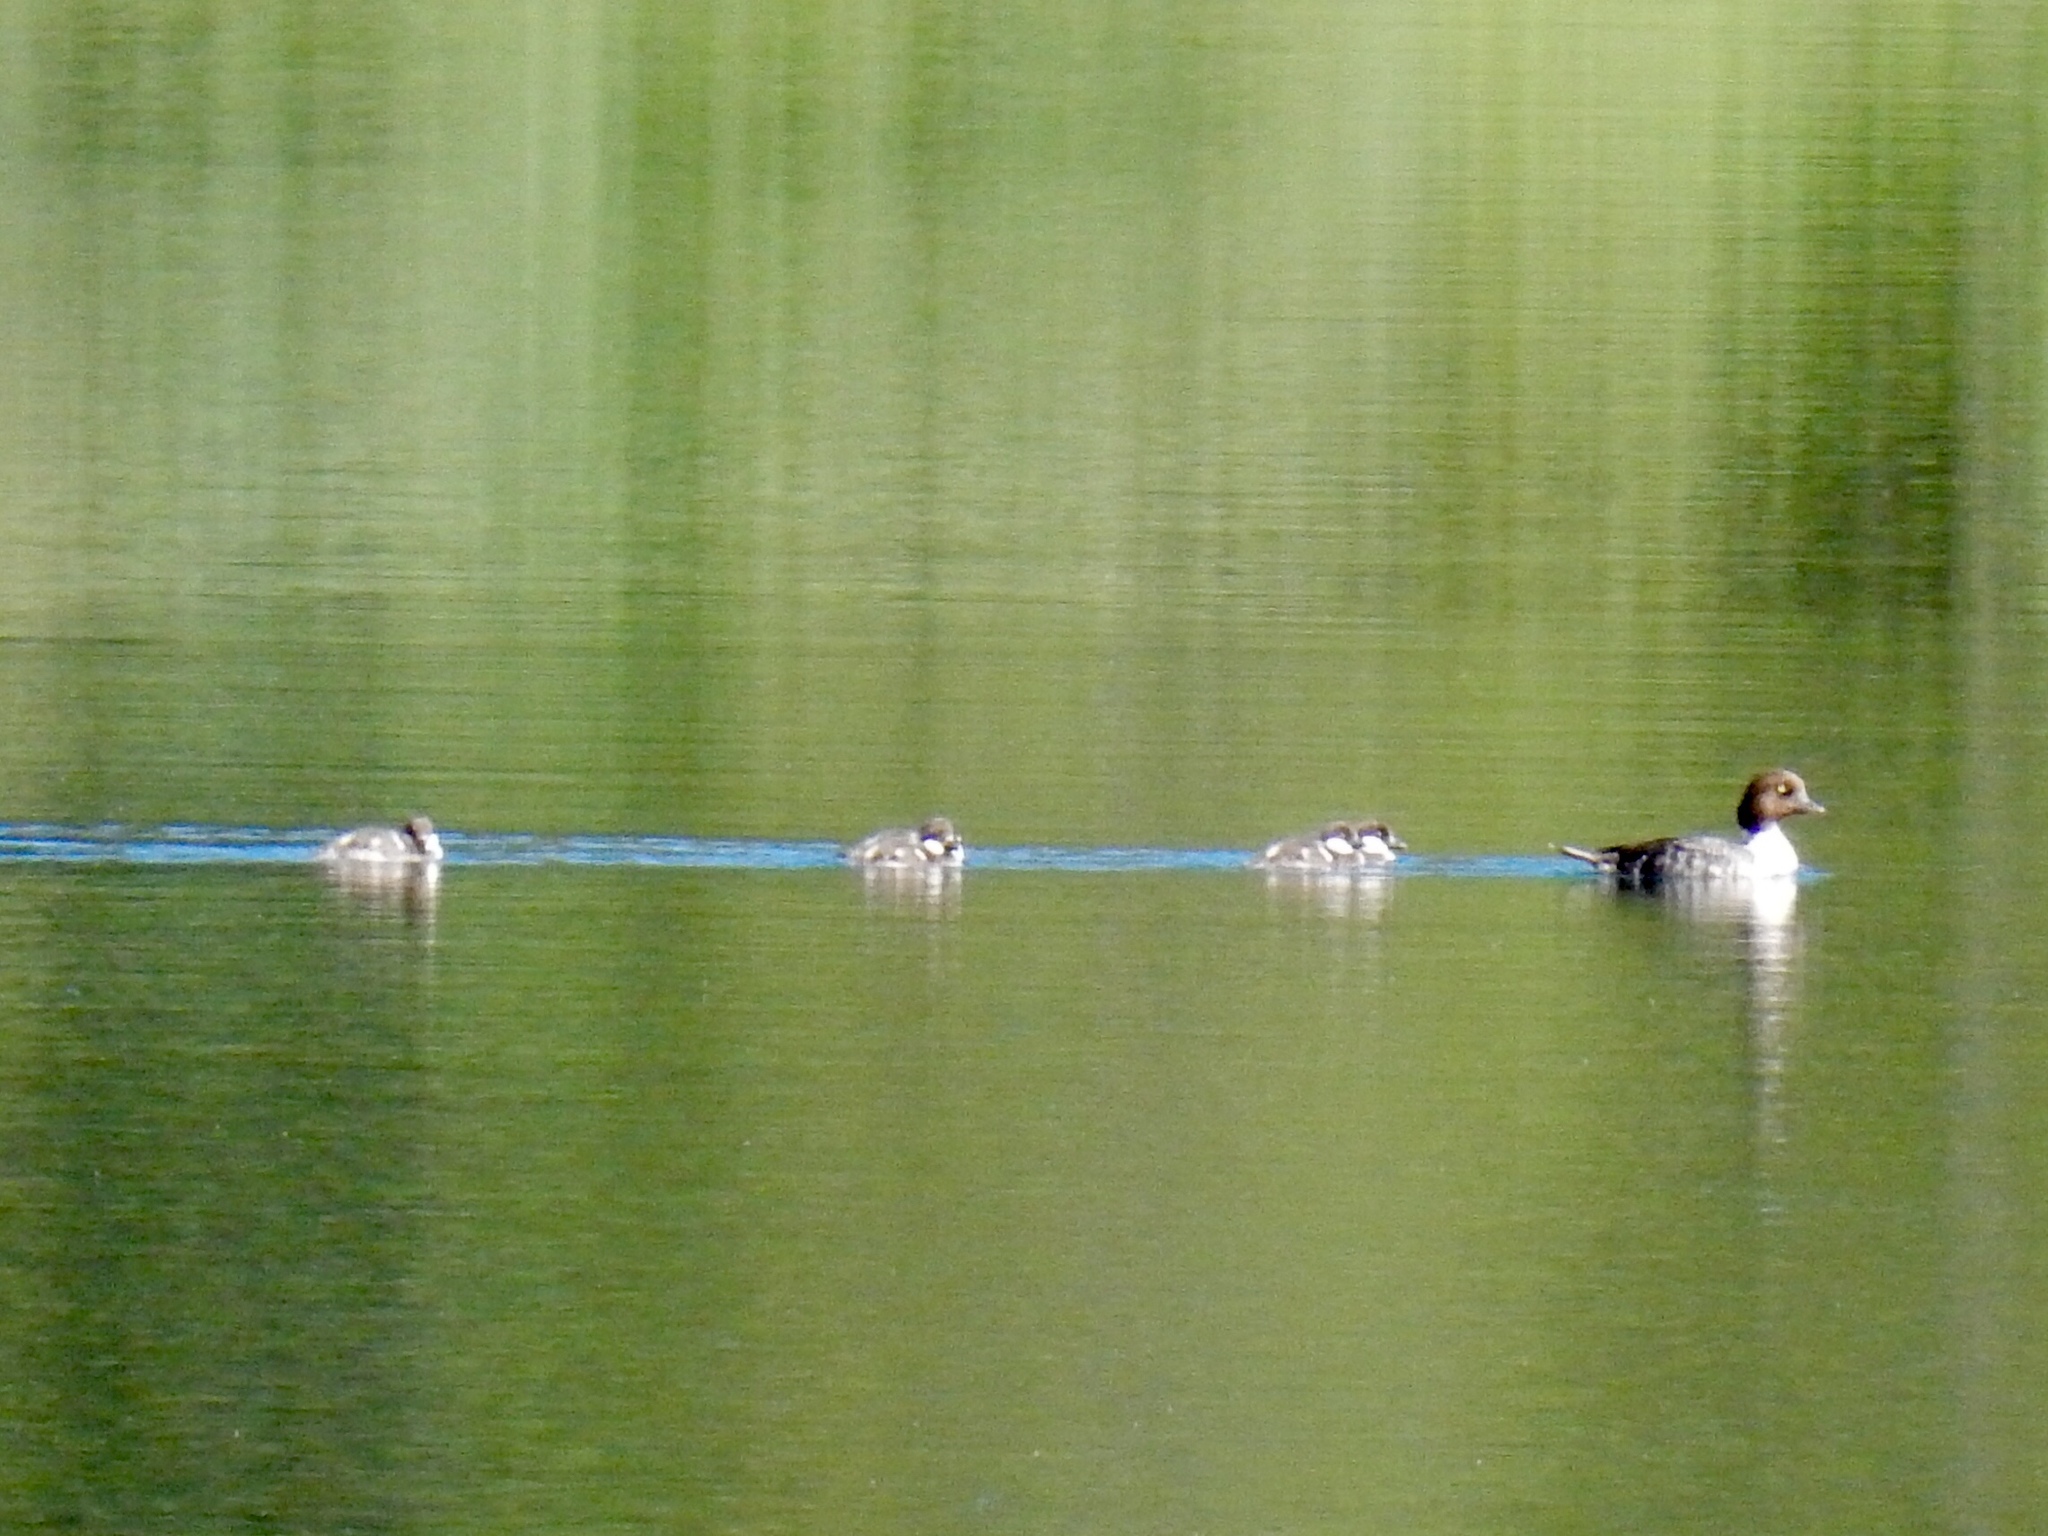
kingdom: Animalia
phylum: Chordata
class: Aves
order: Anseriformes
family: Anatidae
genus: Bucephala
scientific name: Bucephala islandica
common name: Barrow's goldeneye
